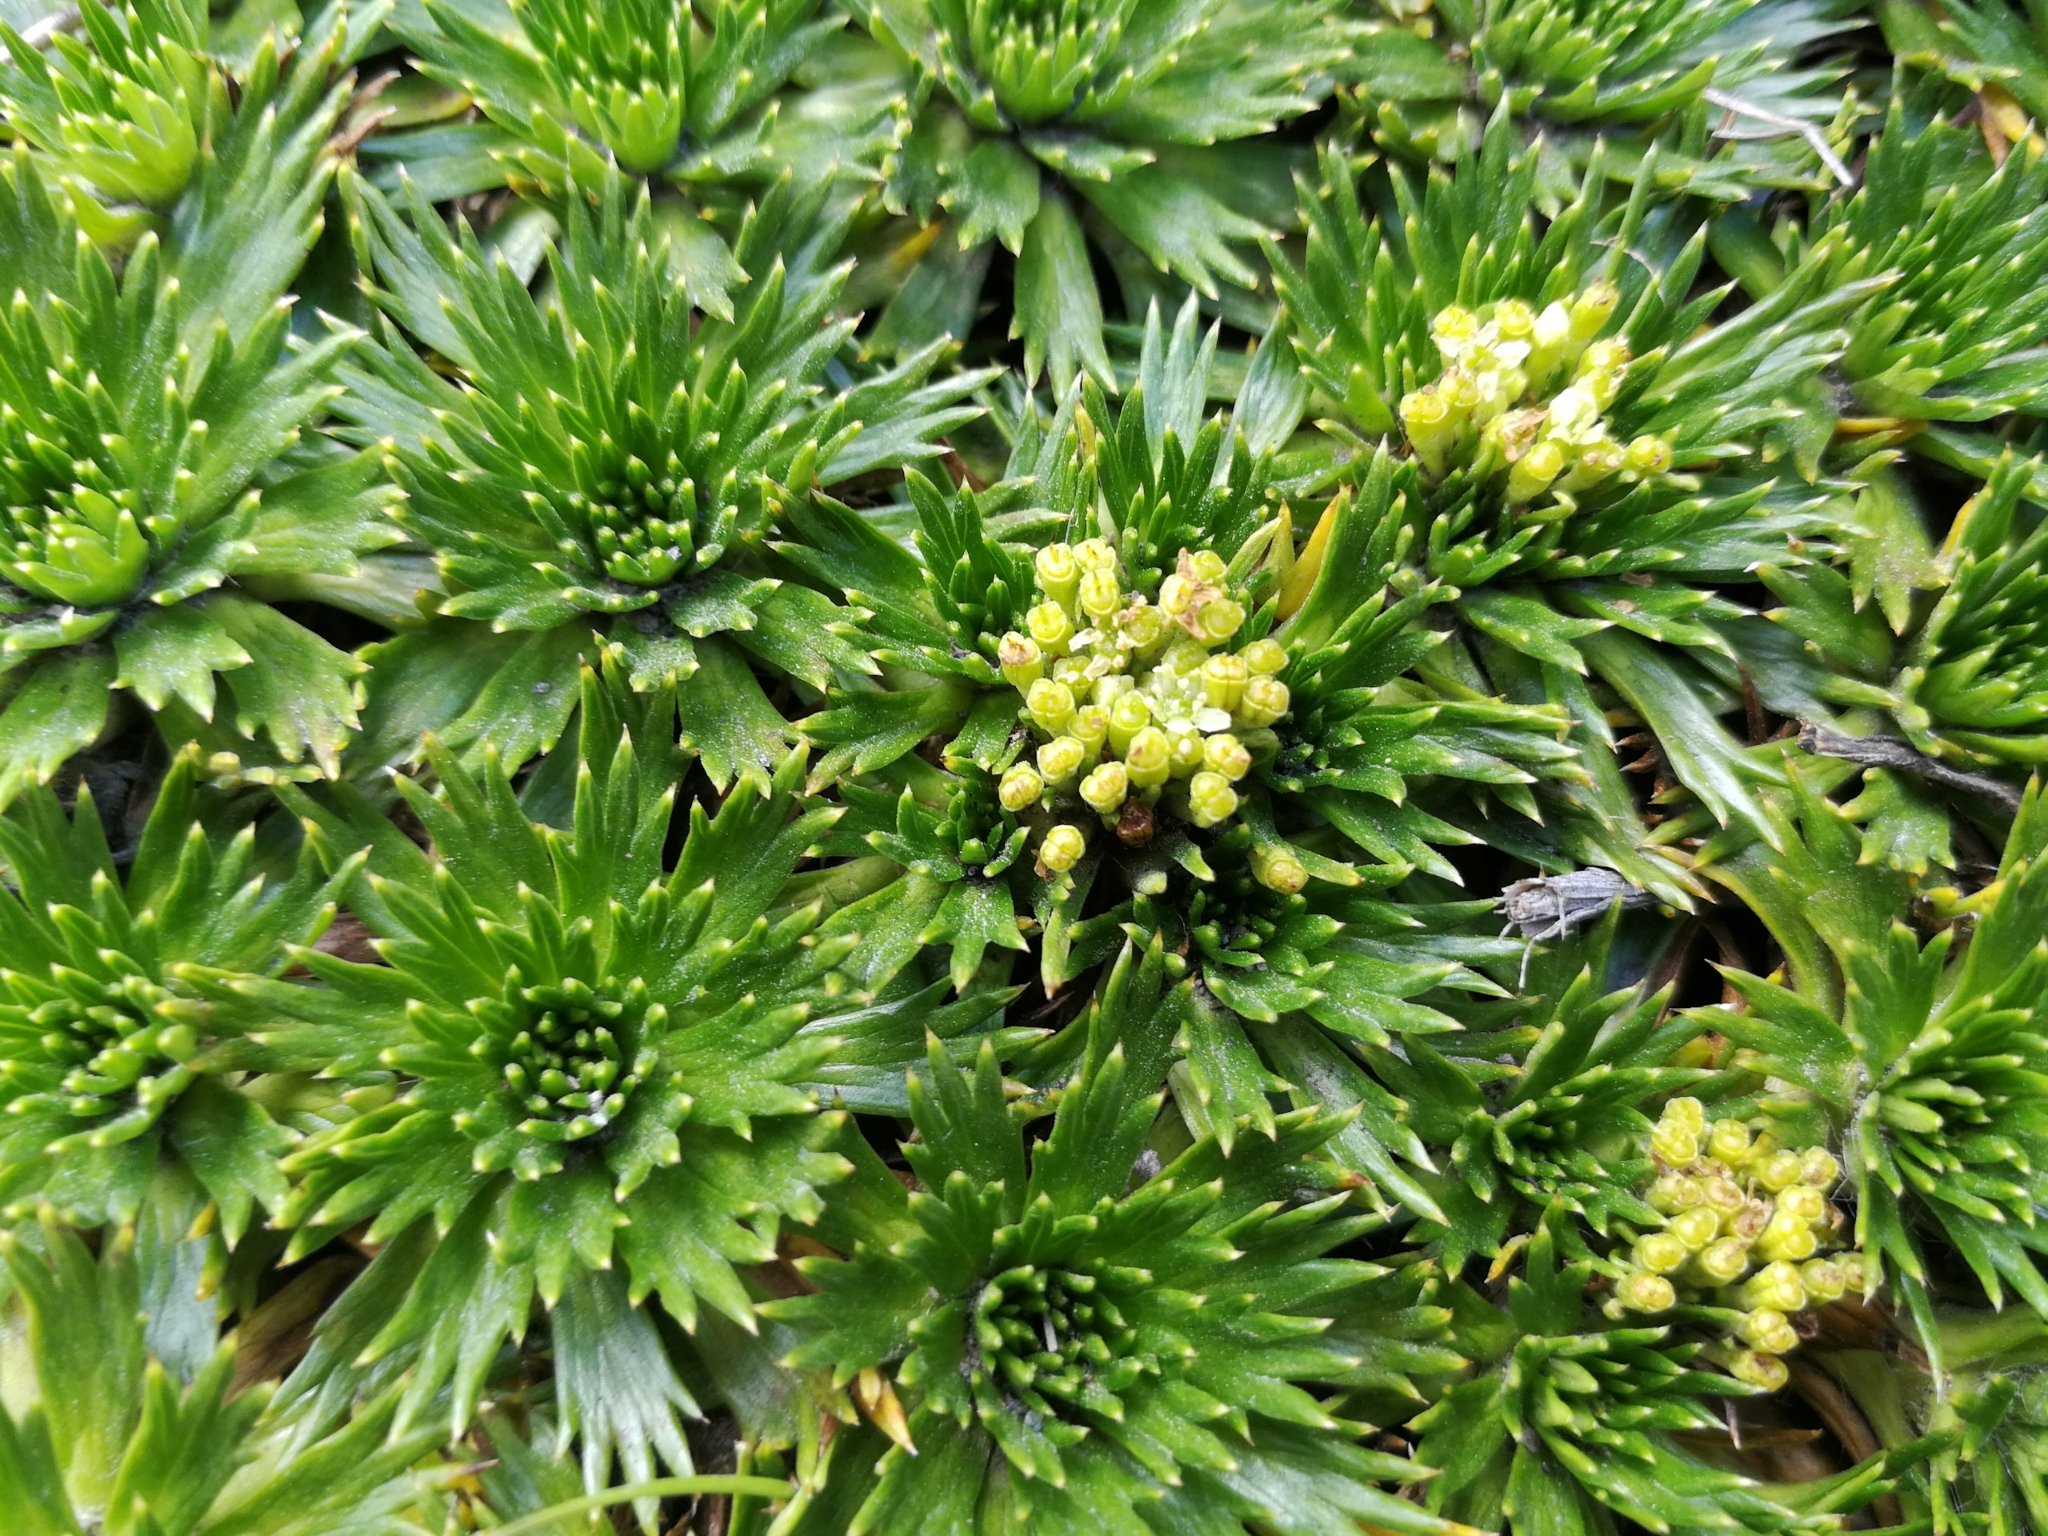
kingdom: Plantae
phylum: Tracheophyta
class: Magnoliopsida
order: Apiales
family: Apiaceae
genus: Azorella
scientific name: Azorella pedunculata
